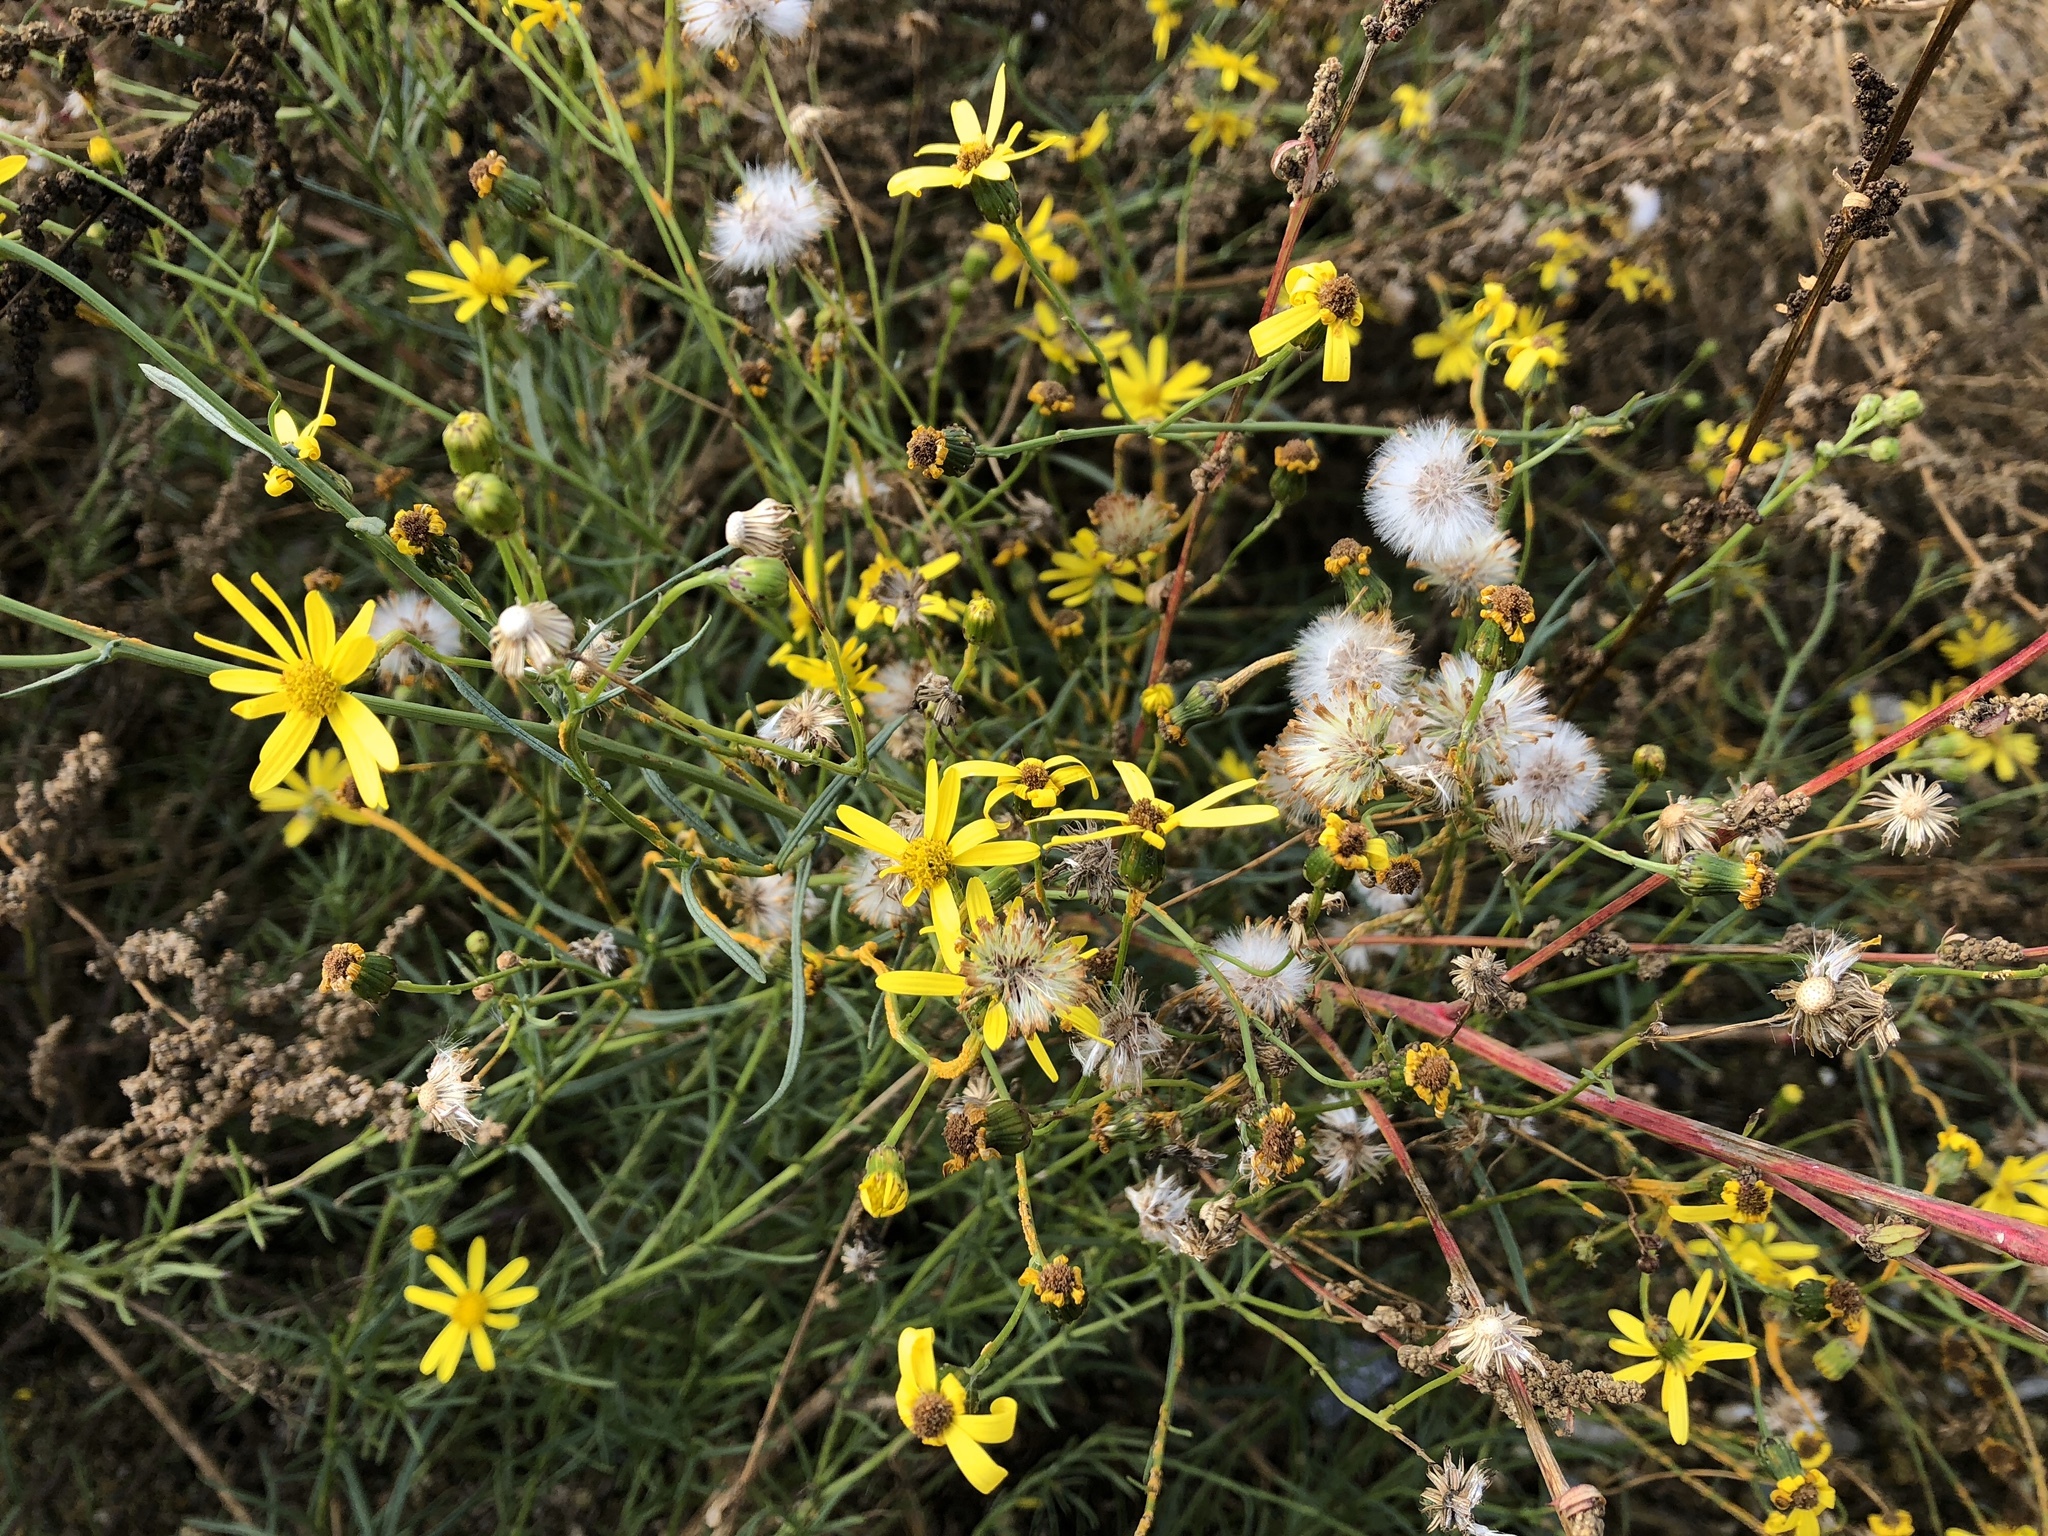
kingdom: Plantae
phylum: Tracheophyta
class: Magnoliopsida
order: Asterales
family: Asteraceae
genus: Senecio
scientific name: Senecio inaequidens
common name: Narrow-leaved ragwort
